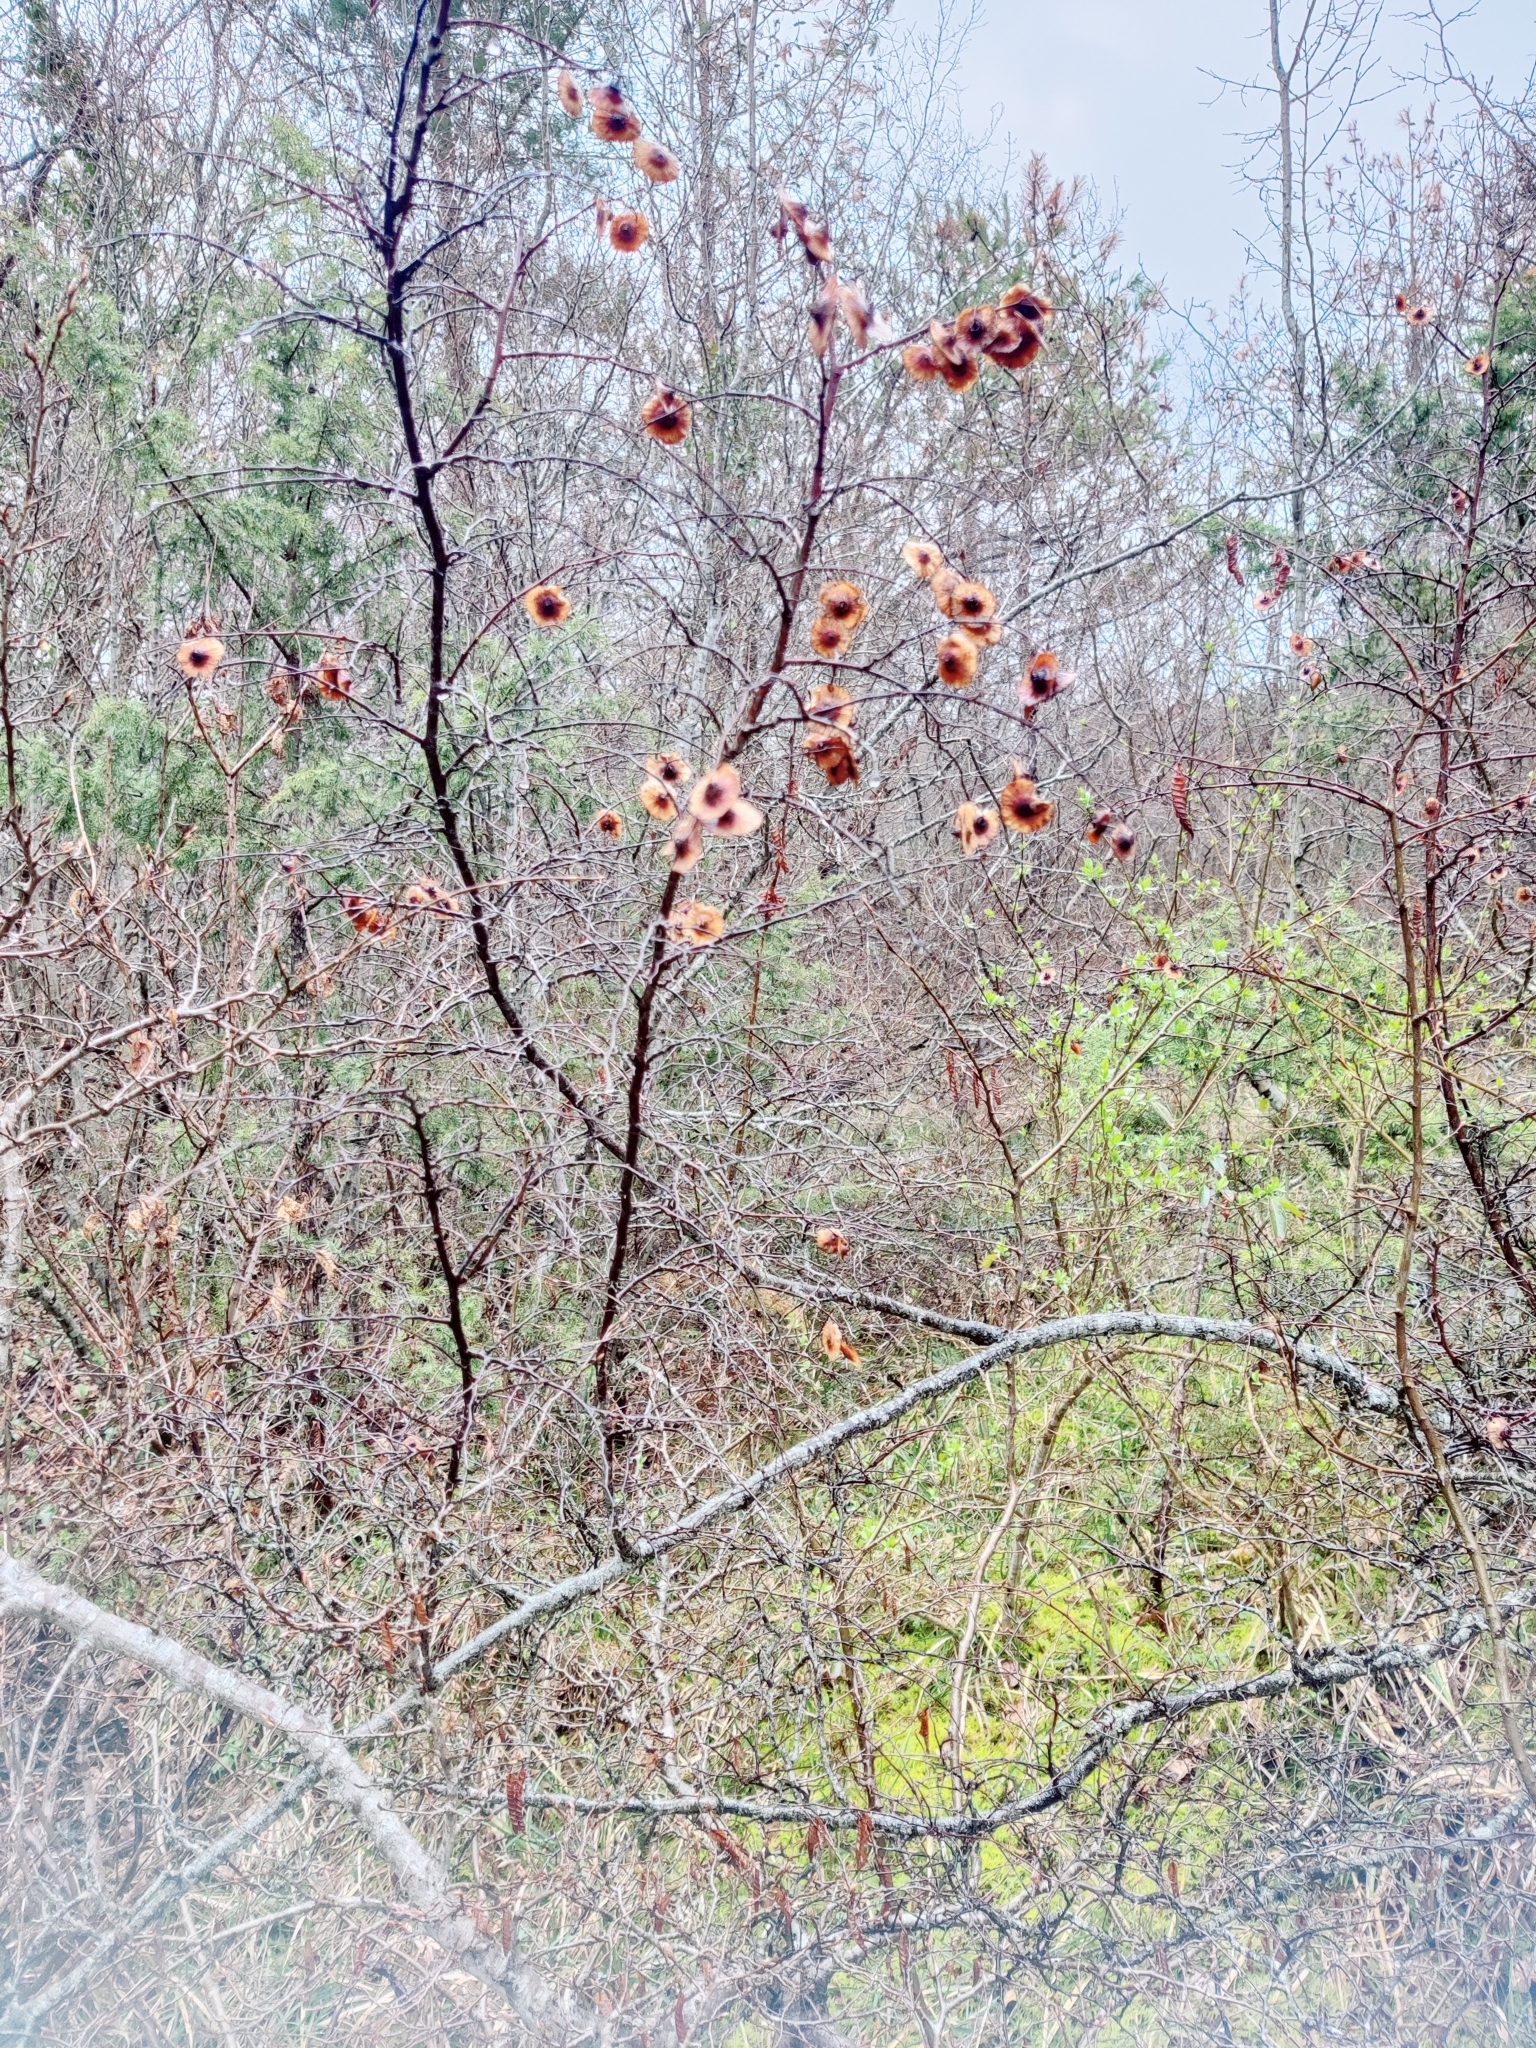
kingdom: Plantae
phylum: Tracheophyta
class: Magnoliopsida
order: Rosales
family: Rhamnaceae
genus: Paliurus
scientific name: Paliurus spina-christi
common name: Jeruselem thorn
